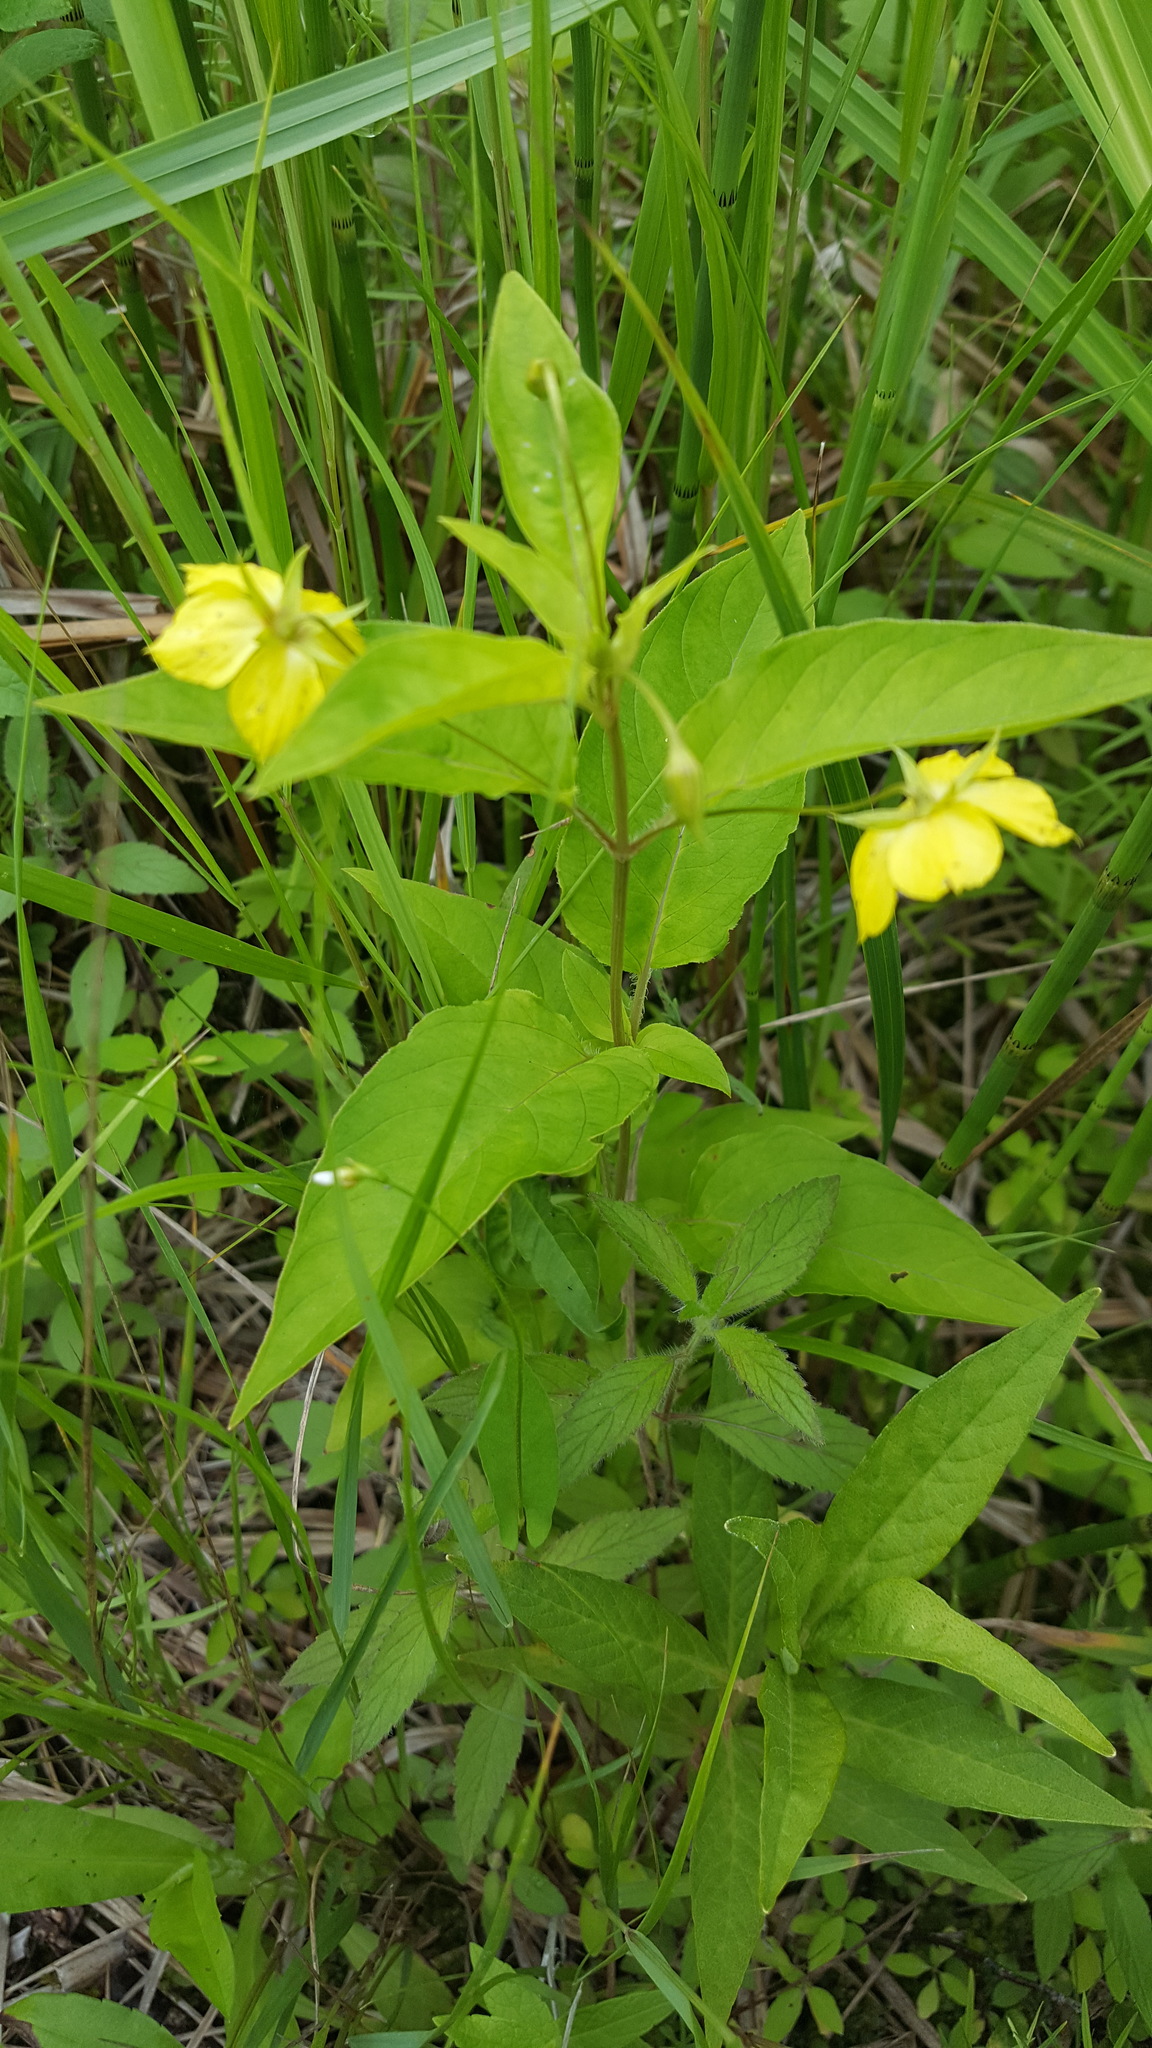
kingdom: Plantae
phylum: Tracheophyta
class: Magnoliopsida
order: Ericales
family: Primulaceae
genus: Lysimachia
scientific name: Lysimachia ciliata
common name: Fringed loosestrife
